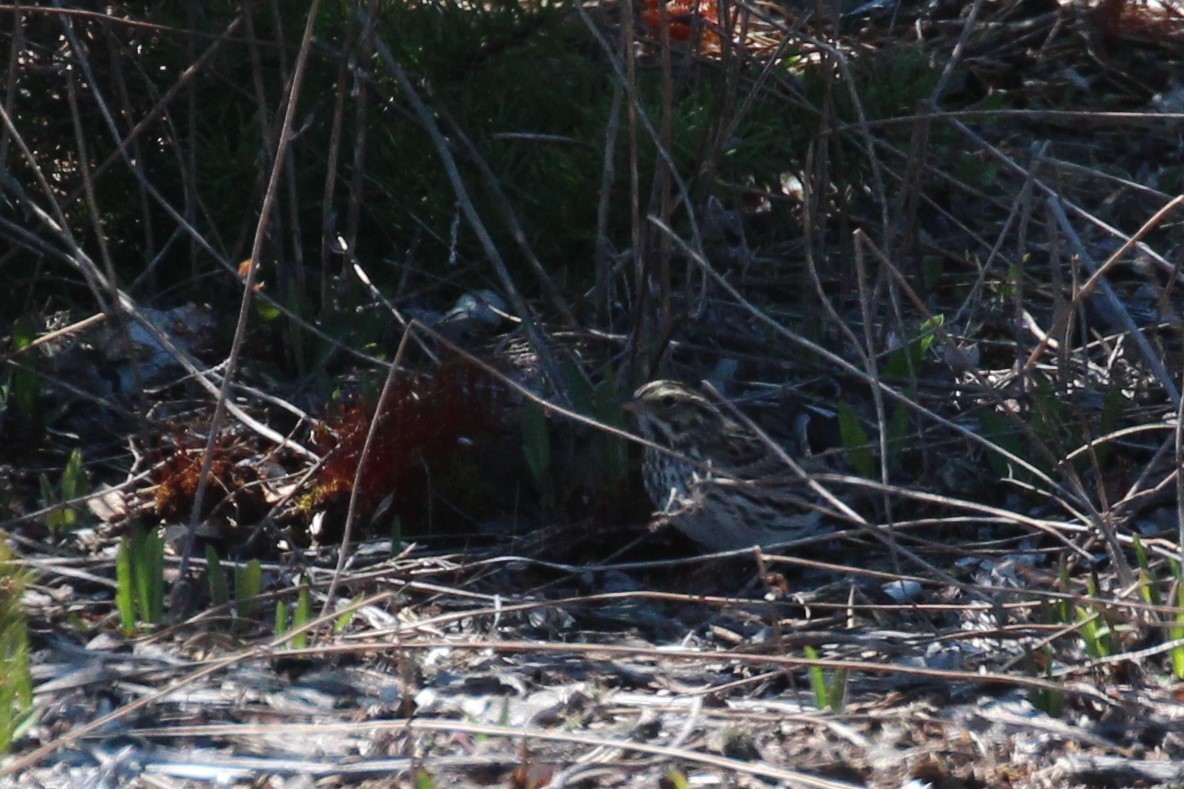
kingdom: Animalia
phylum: Chordata
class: Aves
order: Passeriformes
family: Passerellidae
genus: Passerculus
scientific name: Passerculus sandwichensis
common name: Savannah sparrow
